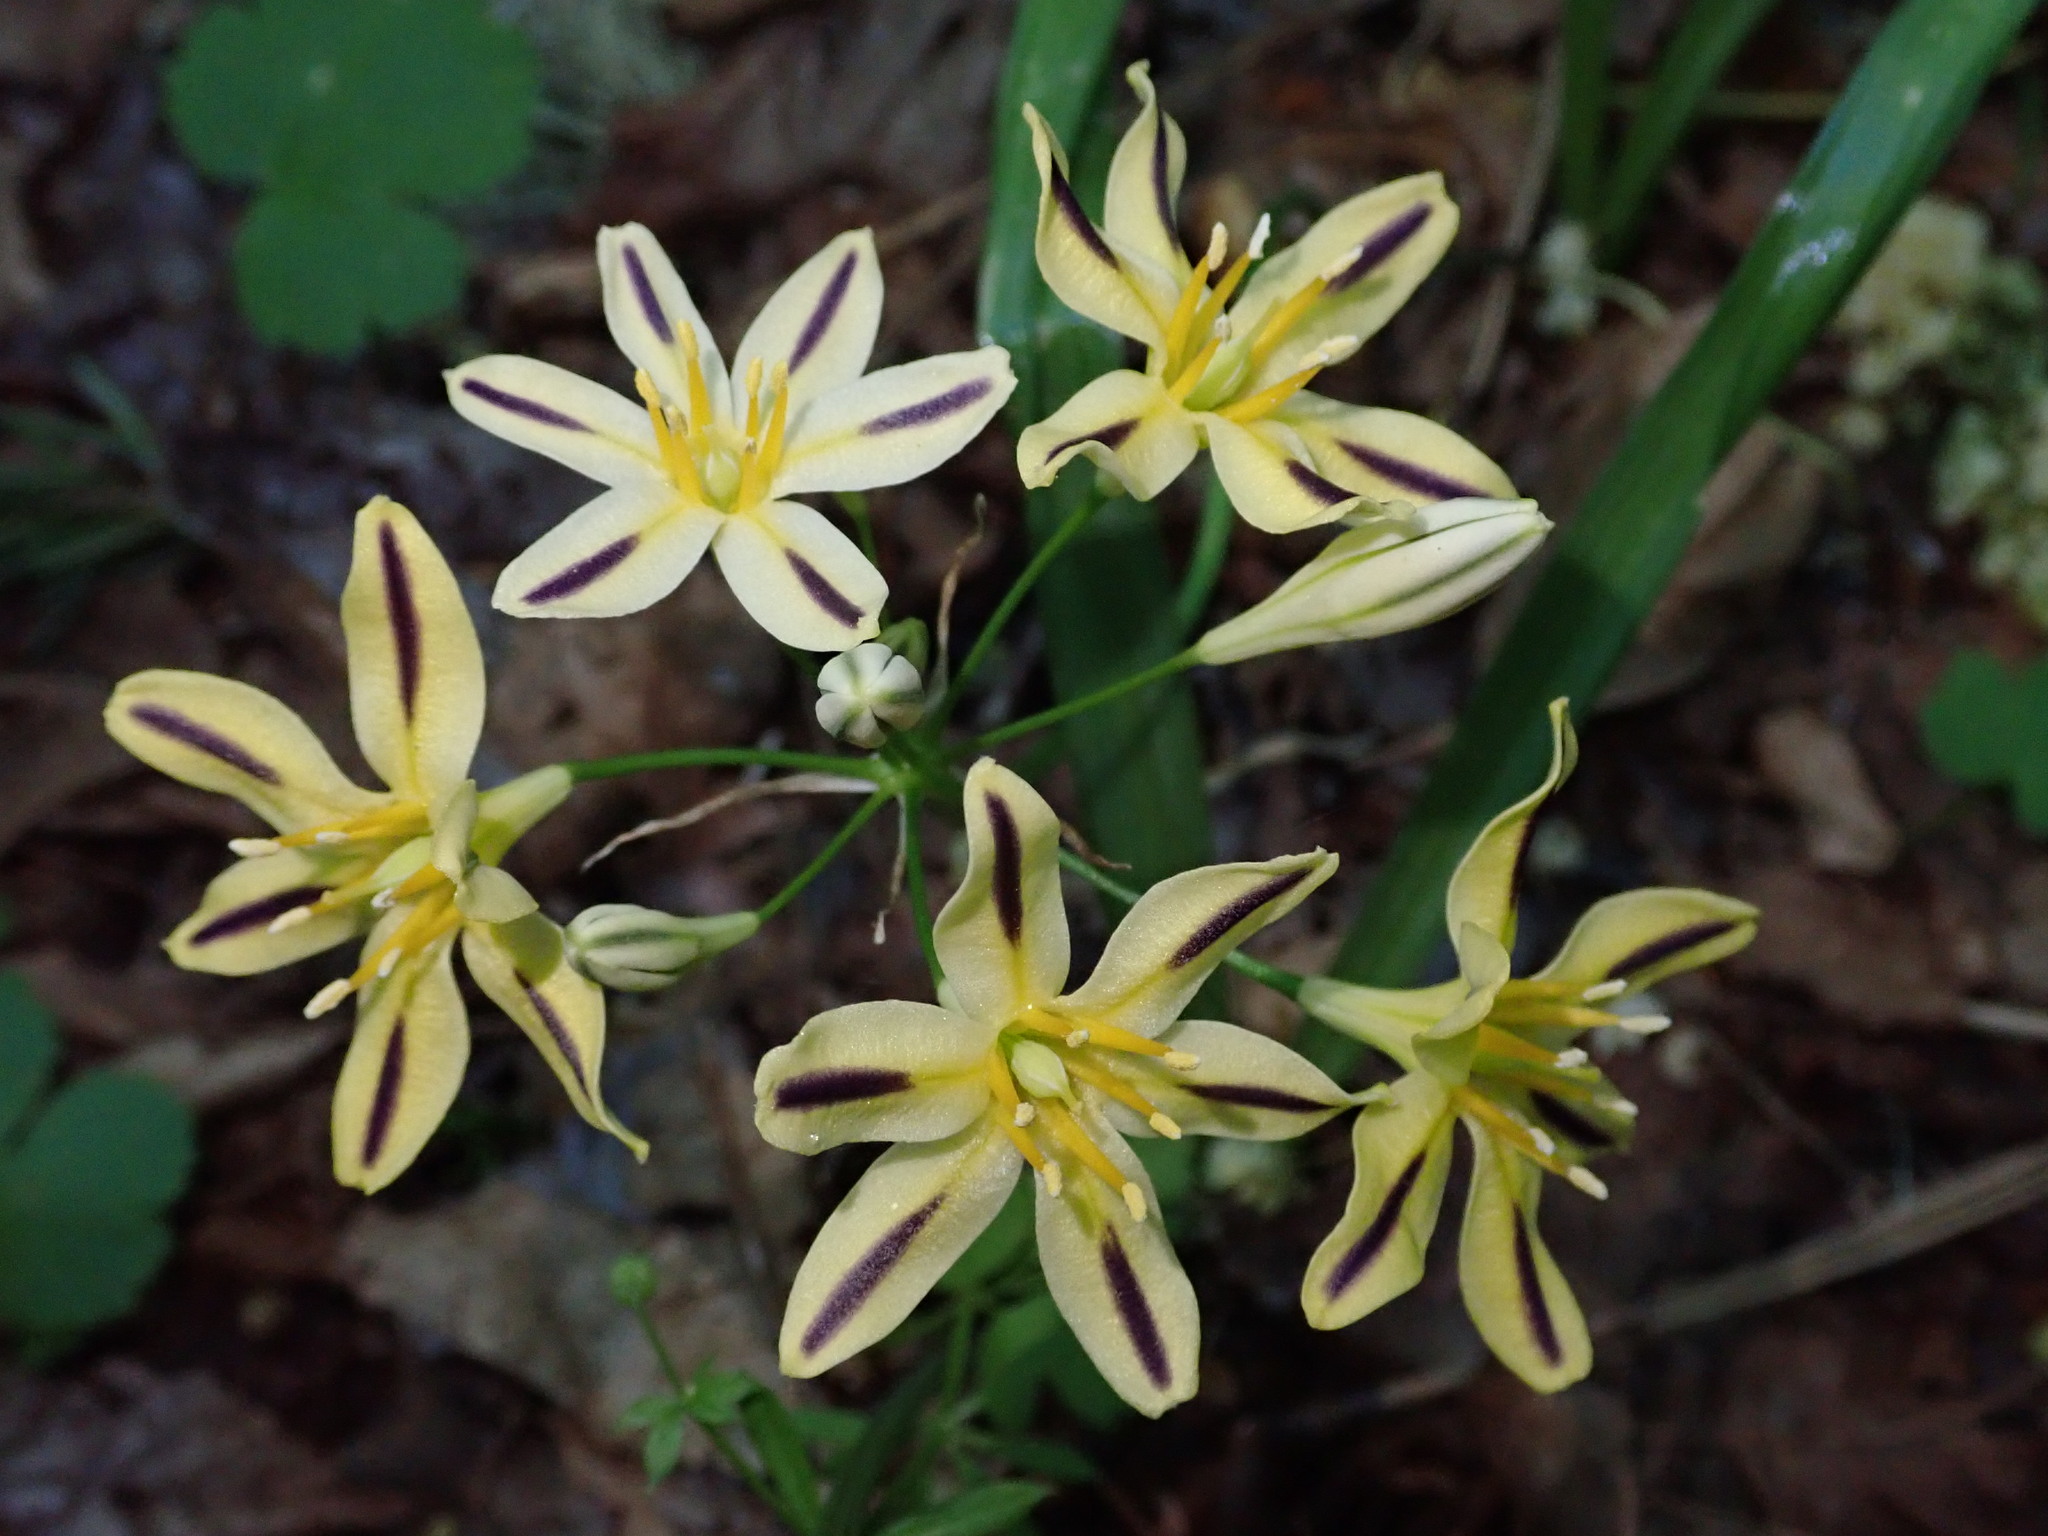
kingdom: Plantae
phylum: Tracheophyta
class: Liliopsida
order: Asparagales
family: Asparagaceae
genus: Triteleia
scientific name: Triteleia hendersonii
